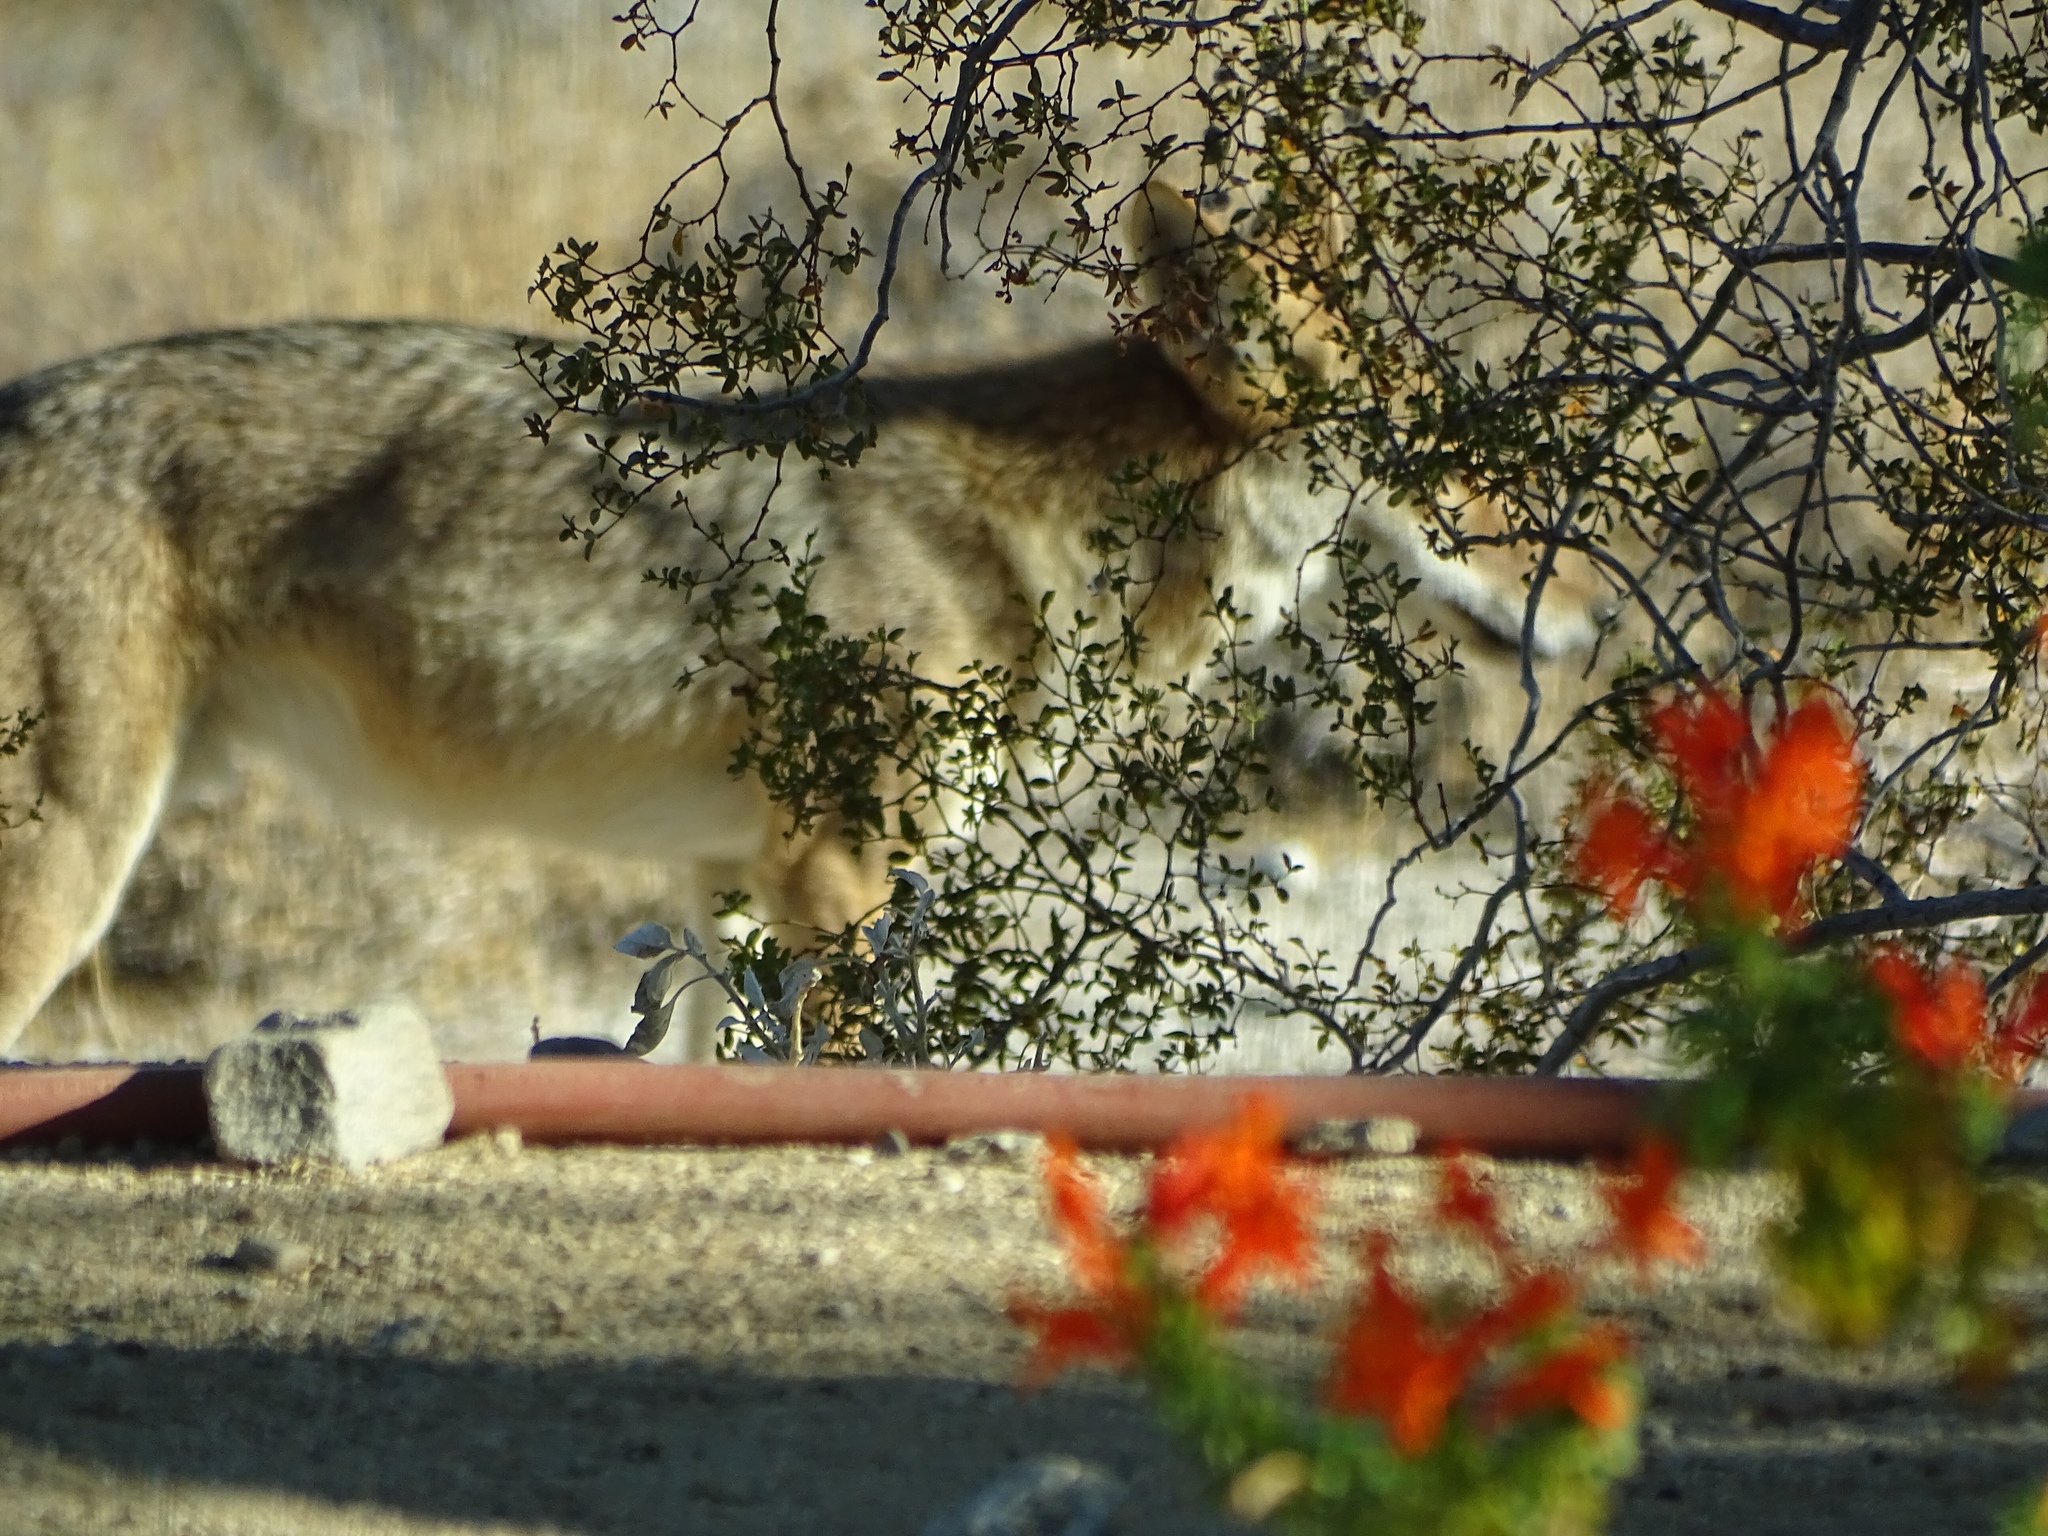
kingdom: Animalia
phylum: Chordata
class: Mammalia
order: Carnivora
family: Canidae
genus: Canis
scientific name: Canis latrans
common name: Coyote
